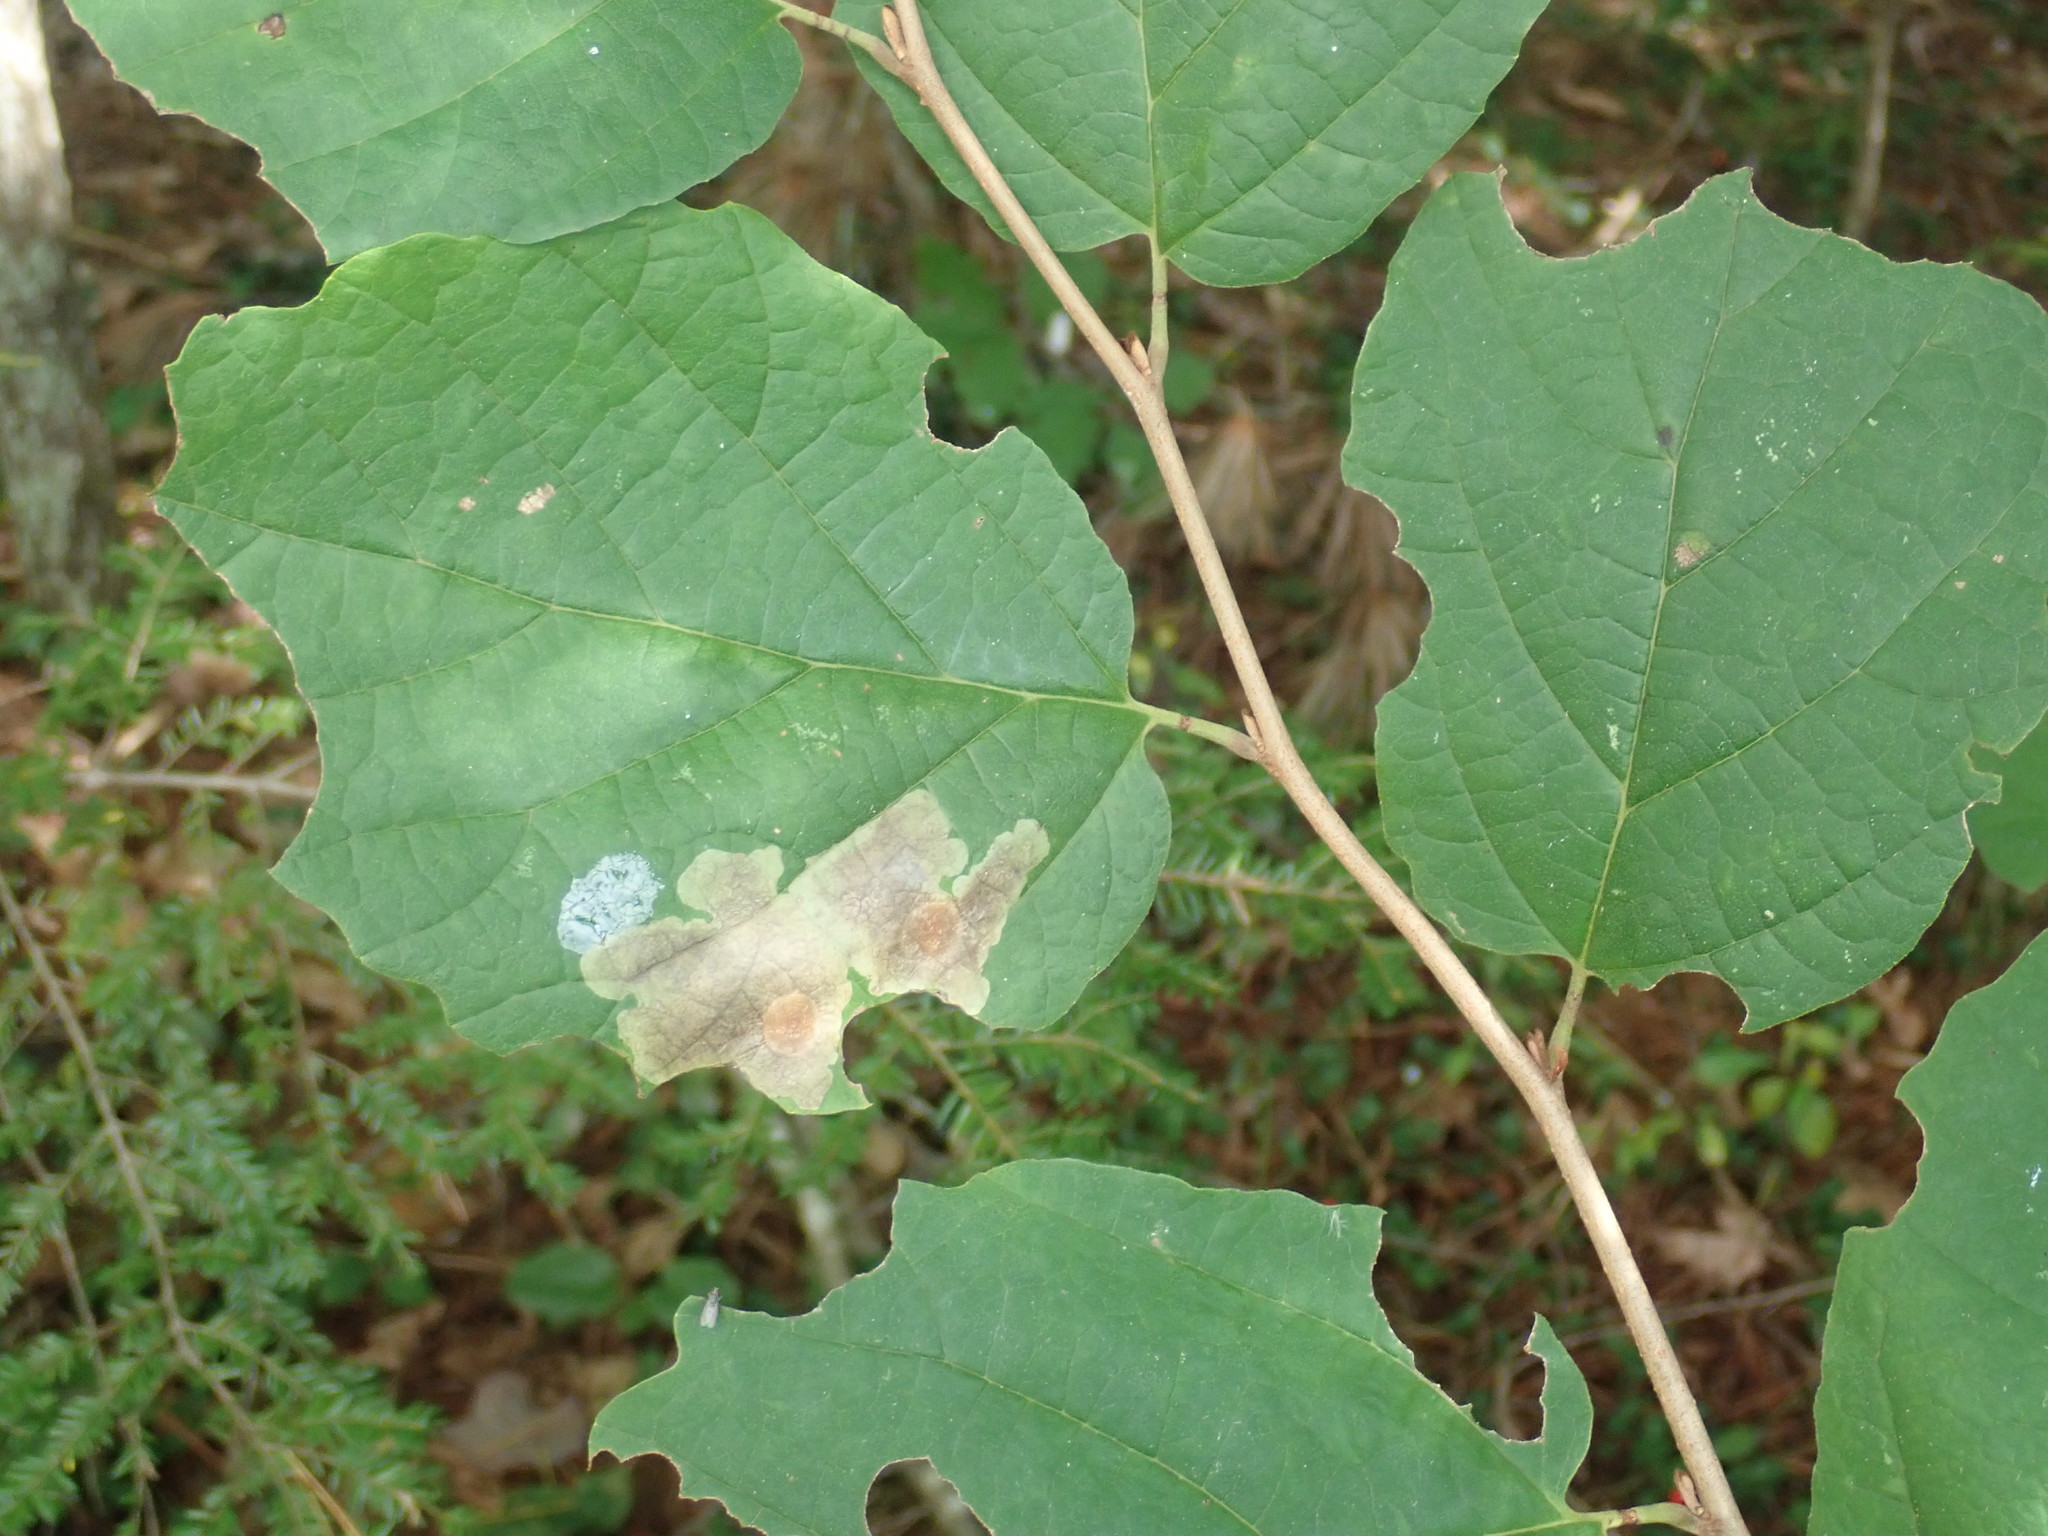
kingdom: Animalia
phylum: Arthropoda
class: Insecta
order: Lepidoptera
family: Gracillariidae
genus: Cameraria
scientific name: Cameraria hamameliella
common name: Witchhazel leafminer
